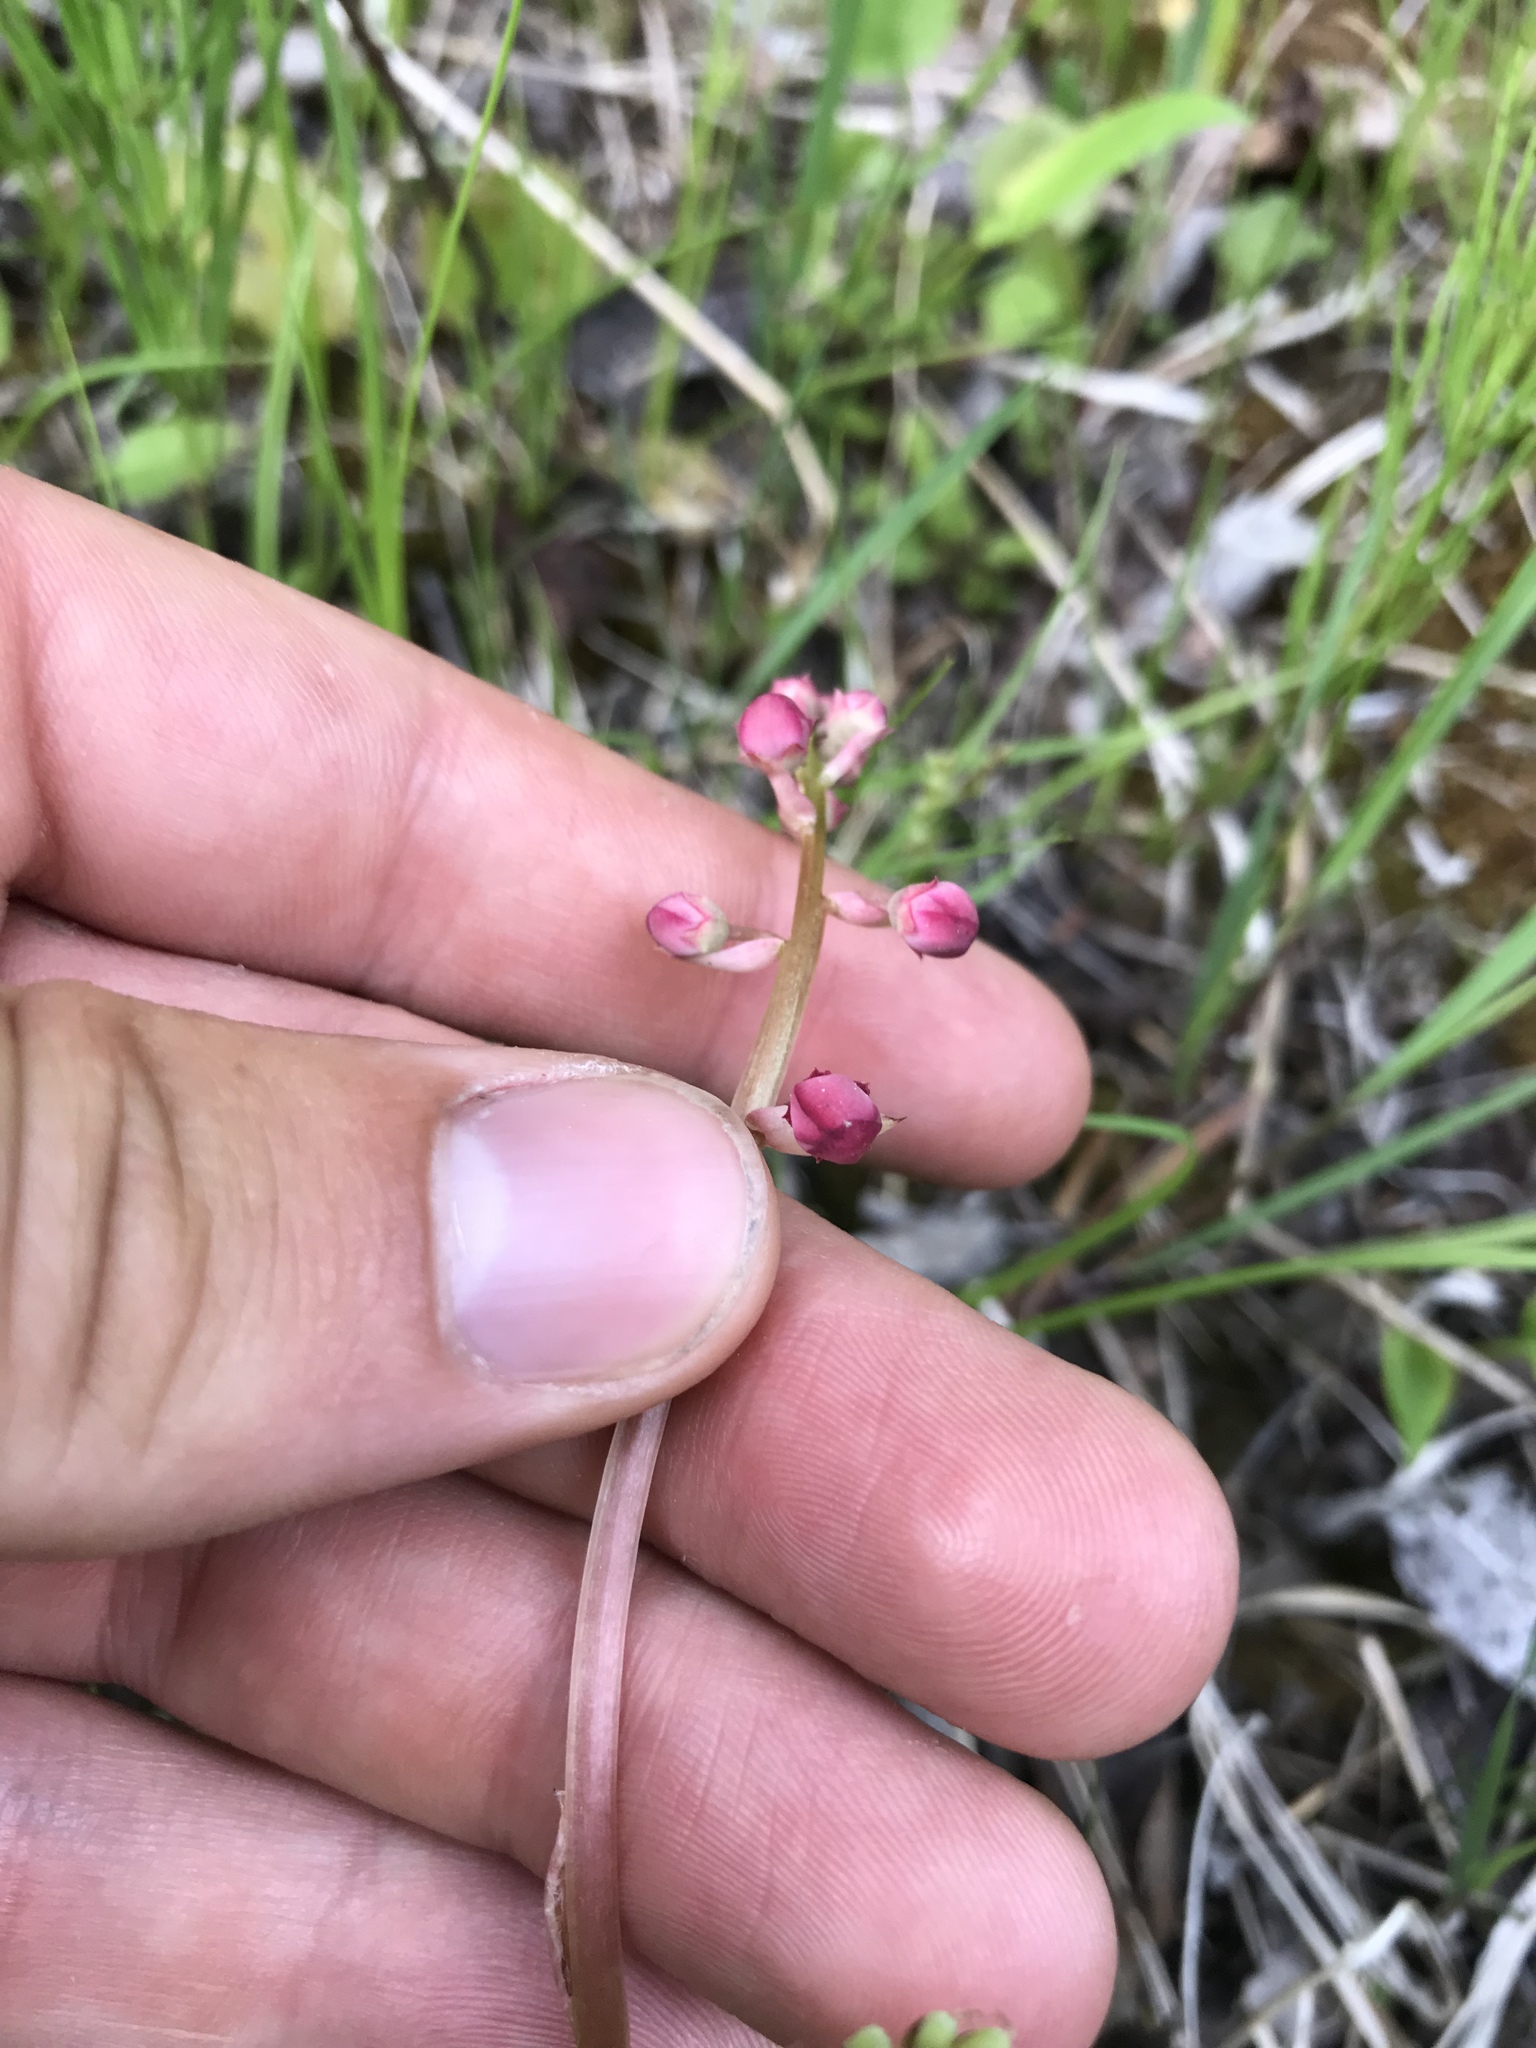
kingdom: Plantae
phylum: Tracheophyta
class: Magnoliopsida
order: Ericales
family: Ericaceae
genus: Pyrola
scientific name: Pyrola asarifolia
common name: Bog wintergreen
